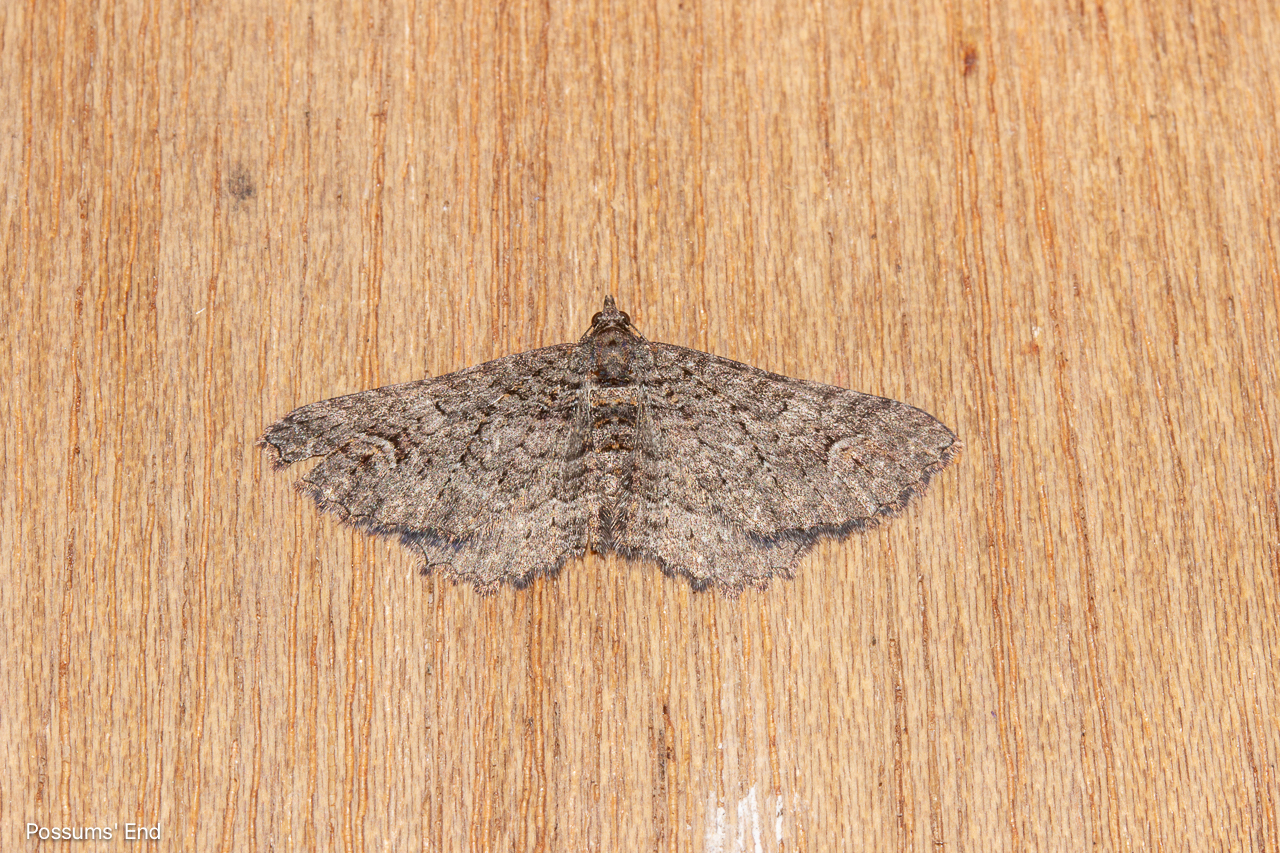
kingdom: Animalia
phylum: Arthropoda
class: Insecta
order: Lepidoptera
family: Geometridae
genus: Horisme
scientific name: Horisme suppressaria
